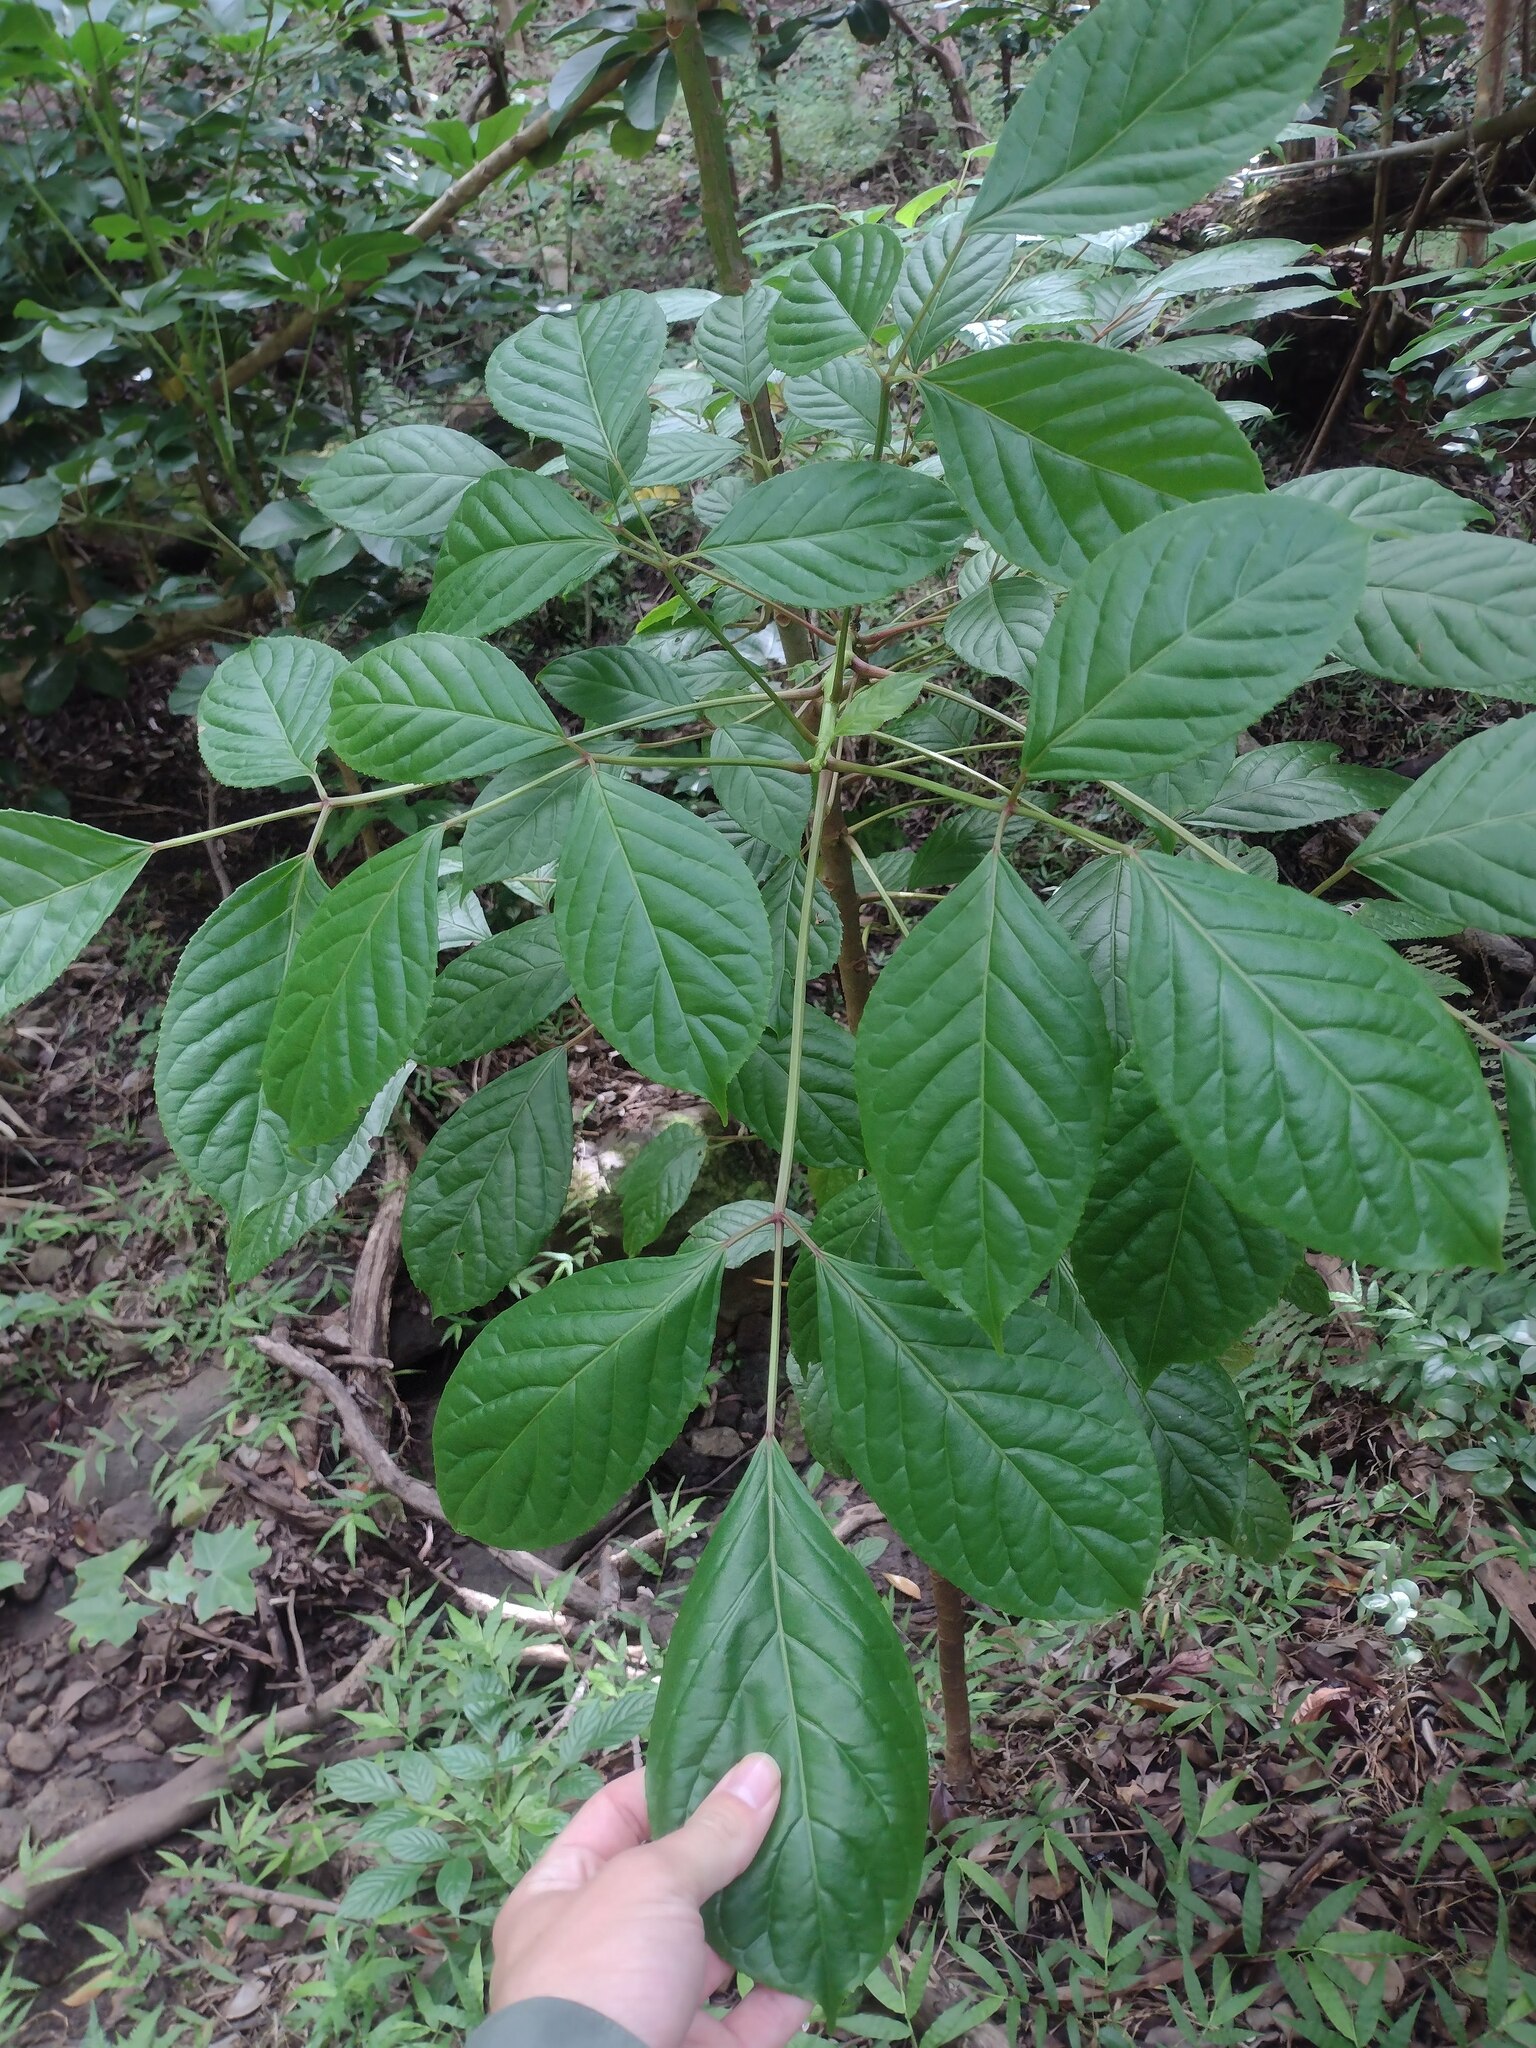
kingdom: Plantae
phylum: Tracheophyta
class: Magnoliopsida
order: Malpighiales
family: Phyllanthaceae
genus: Bischofia
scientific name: Bischofia javanica
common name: Javanese bishopwood
